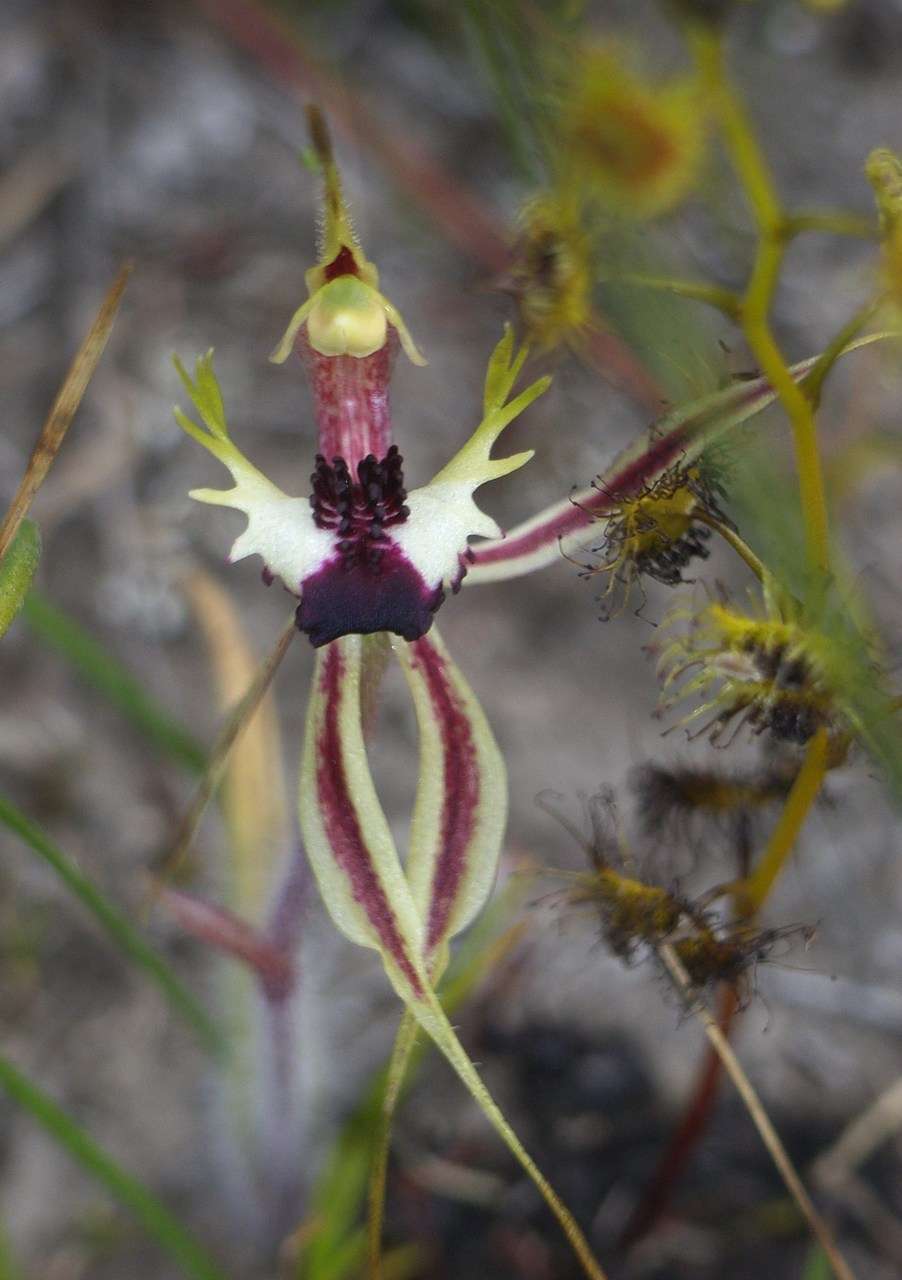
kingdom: Plantae
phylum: Tracheophyta
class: Liliopsida
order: Asparagales
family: Orchidaceae
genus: Caladenia
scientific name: Caladenia parva
